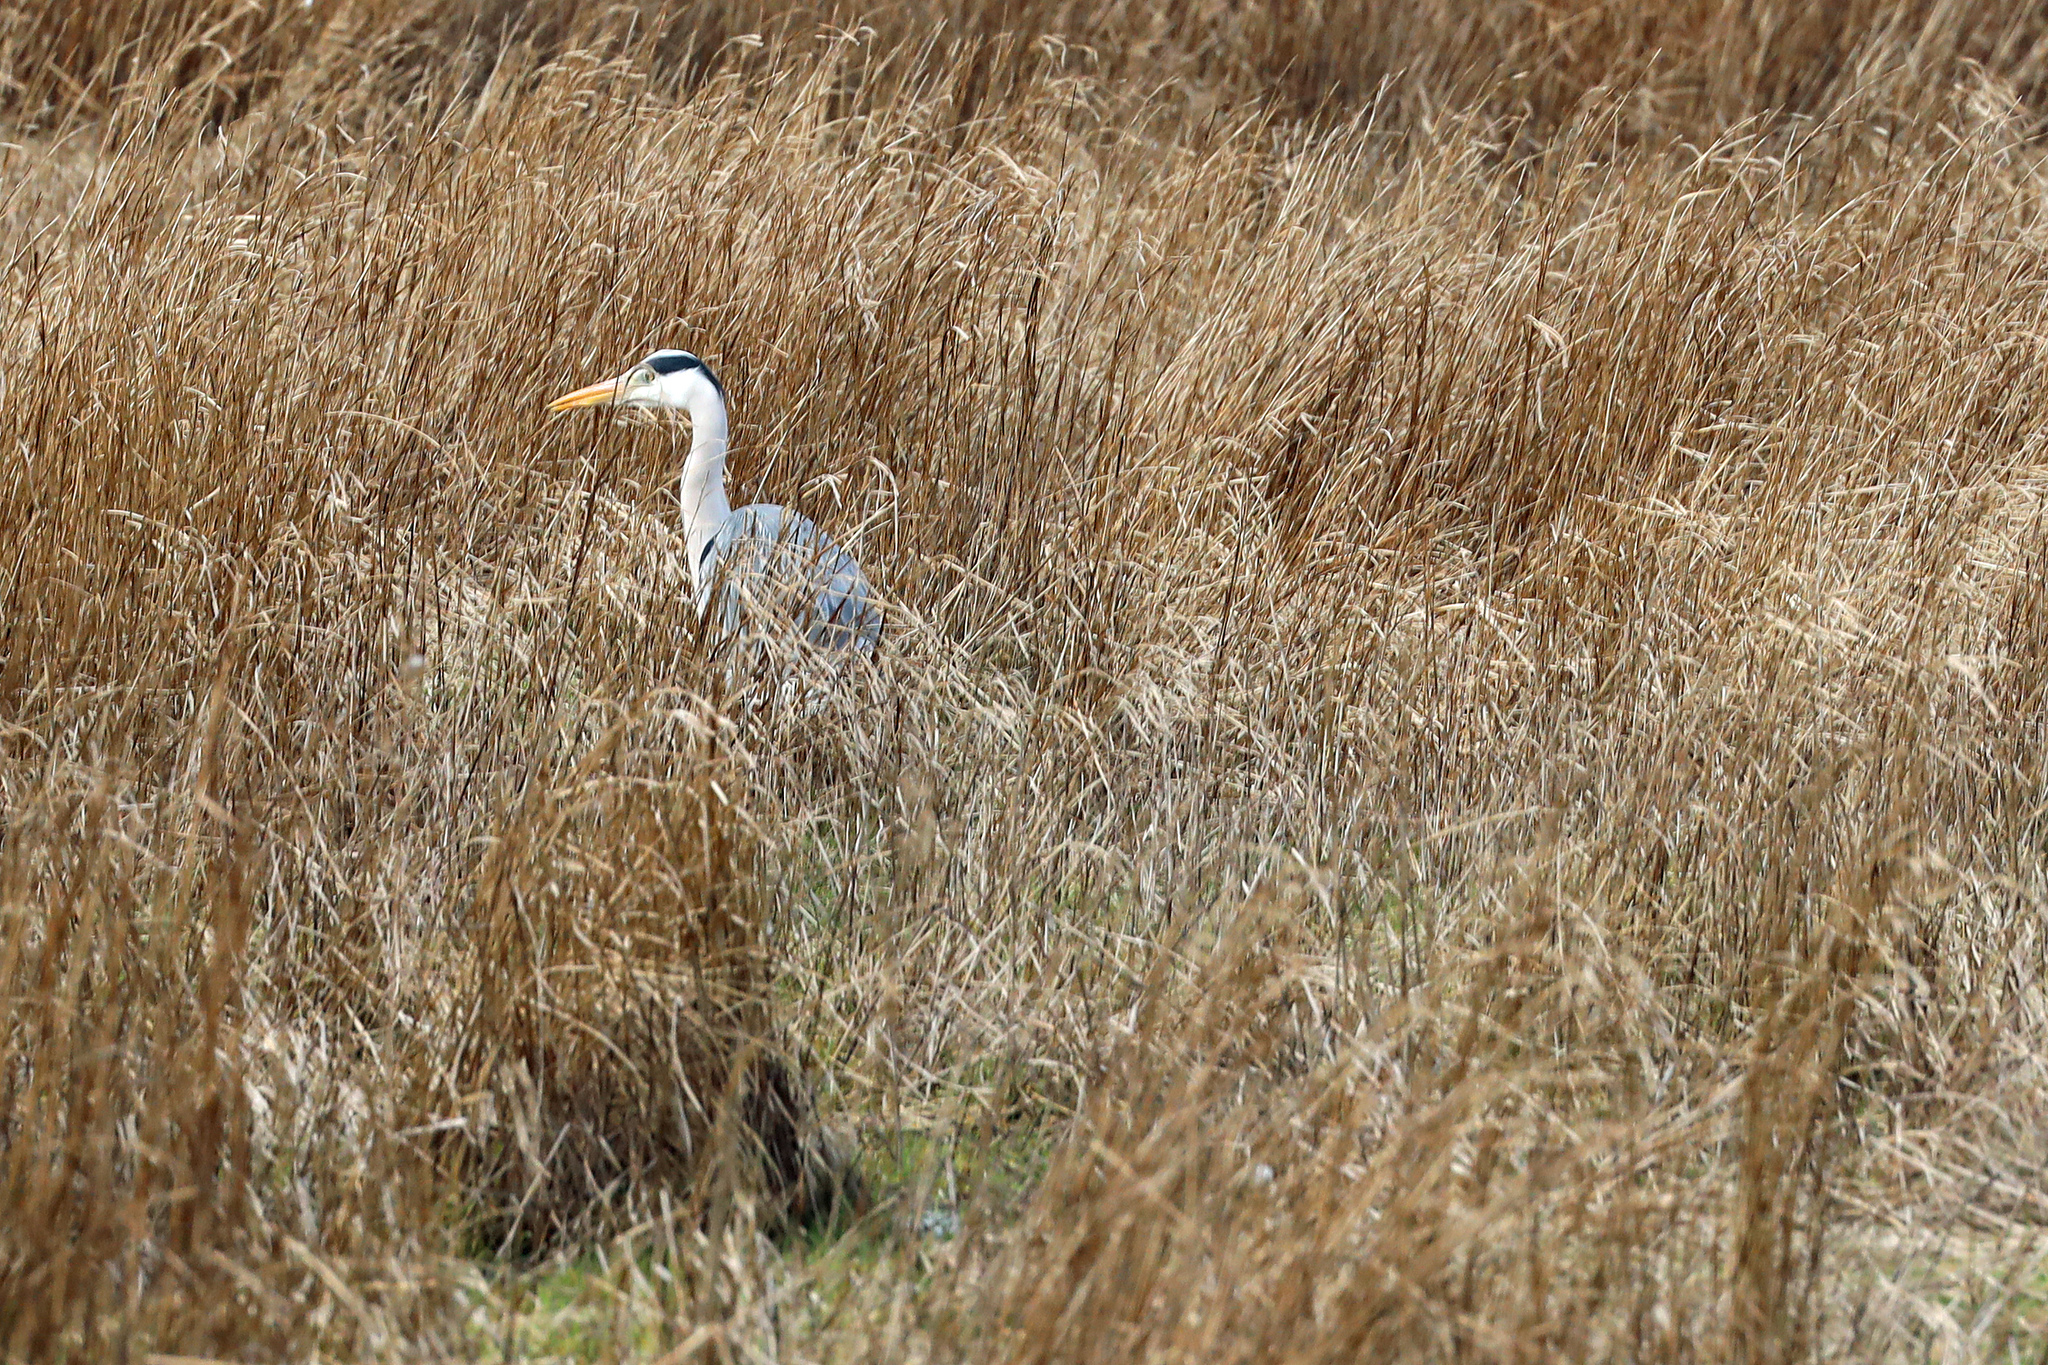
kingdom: Animalia
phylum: Chordata
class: Aves
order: Pelecaniformes
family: Ardeidae
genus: Ardea
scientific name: Ardea cinerea
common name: Grey heron
